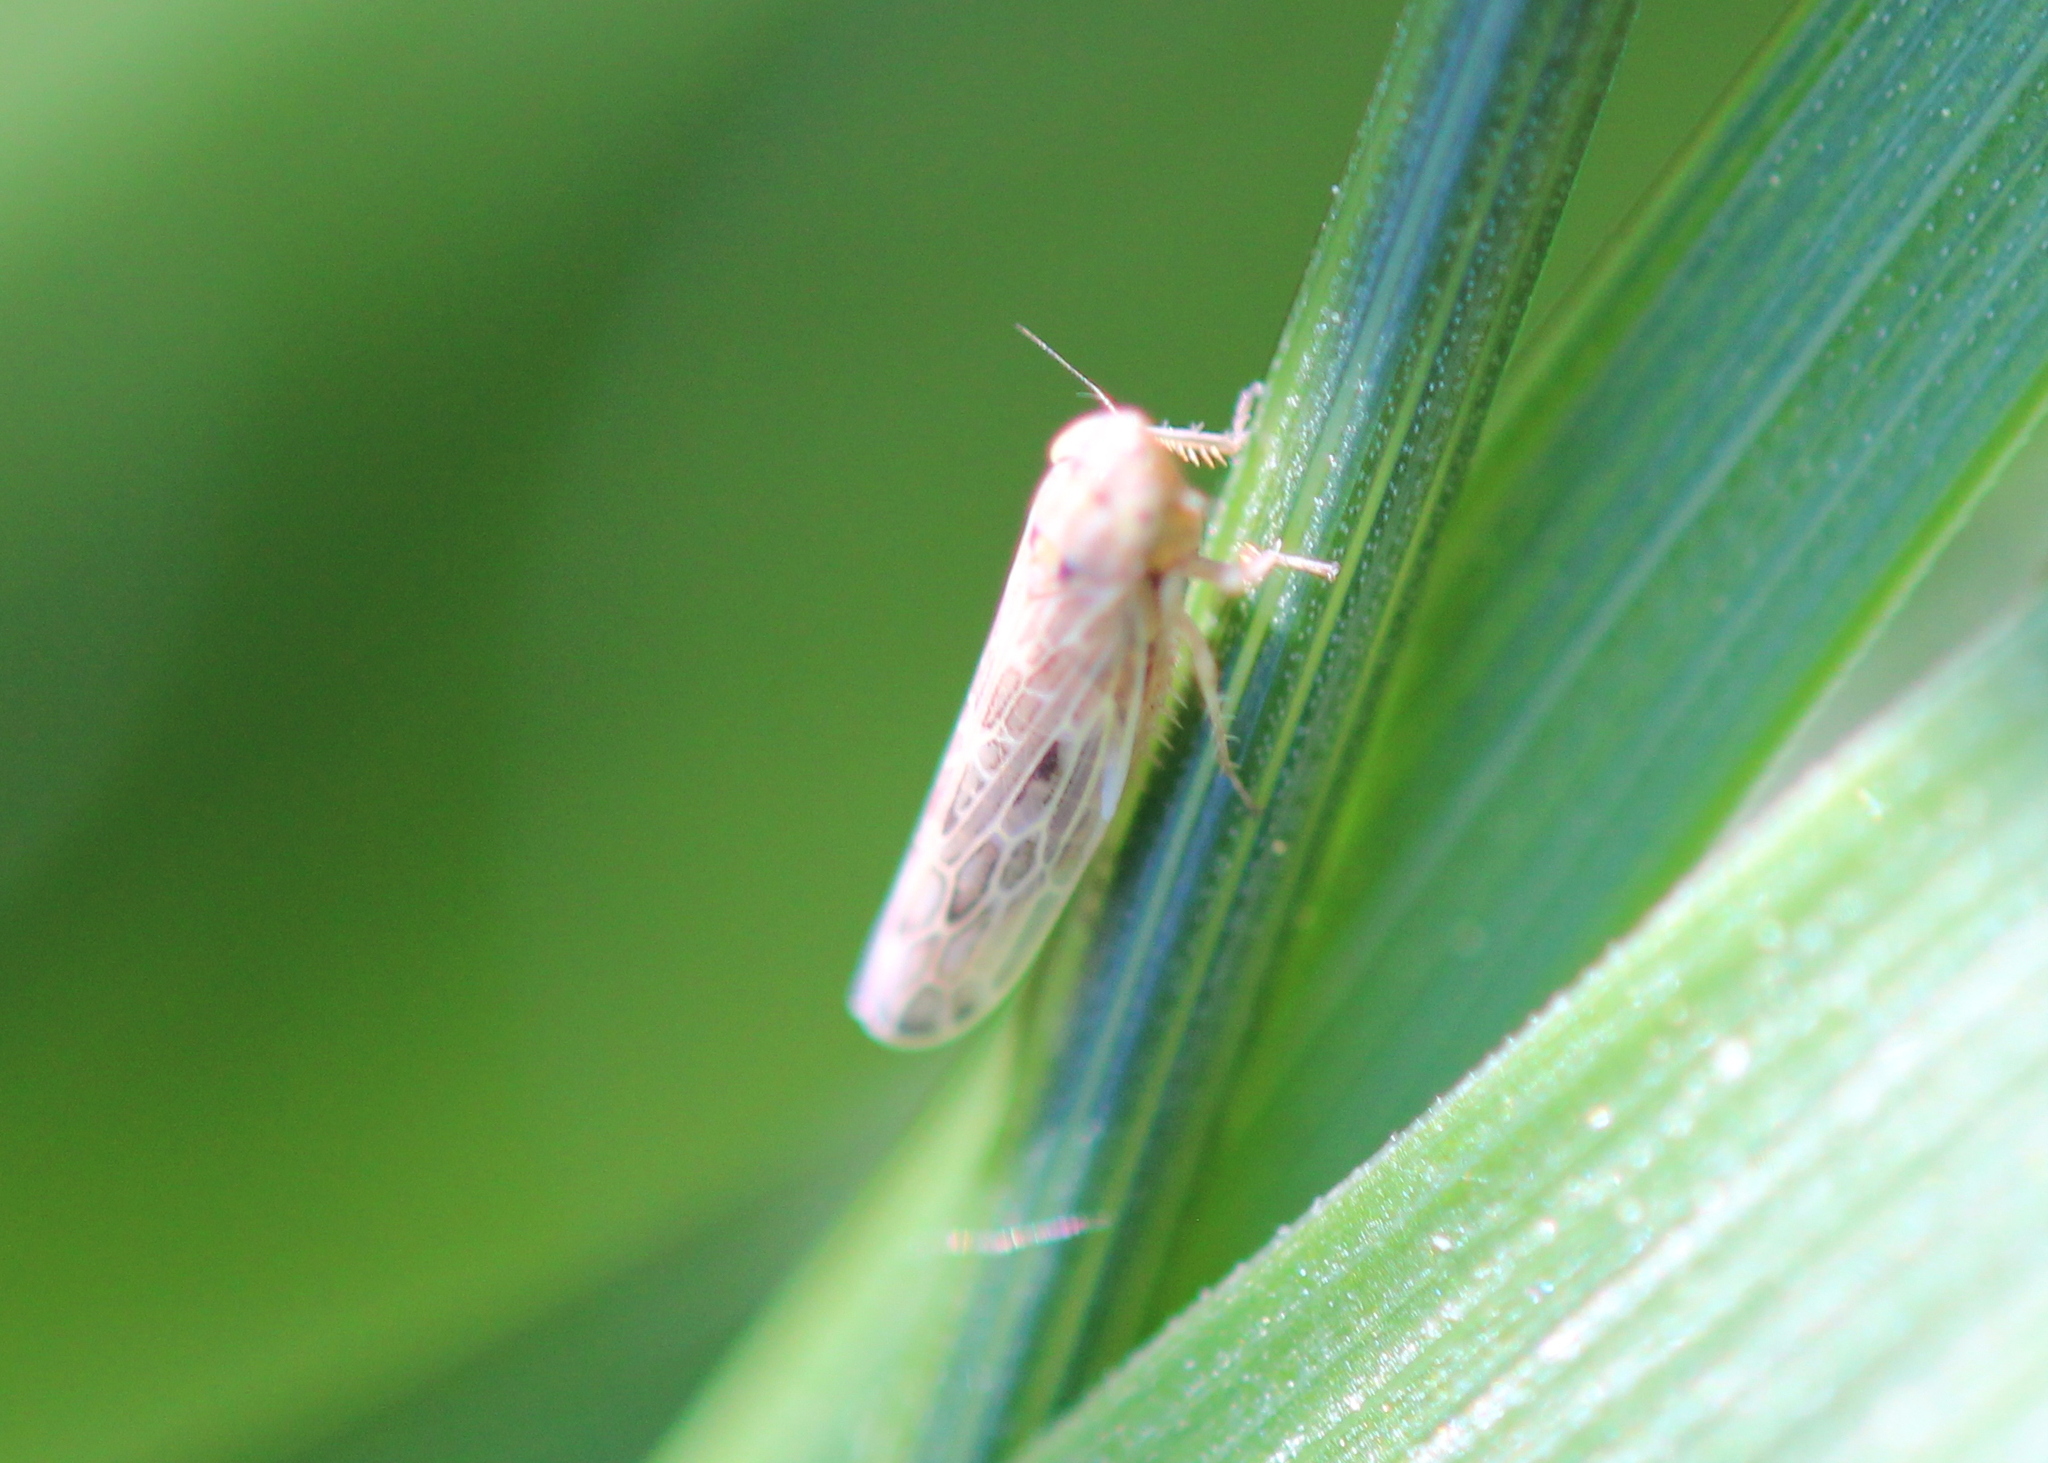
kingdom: Animalia
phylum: Arthropoda
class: Insecta
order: Hemiptera
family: Cicadellidae
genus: Endria
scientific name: Endria inimicus
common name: Painted leafhopper
